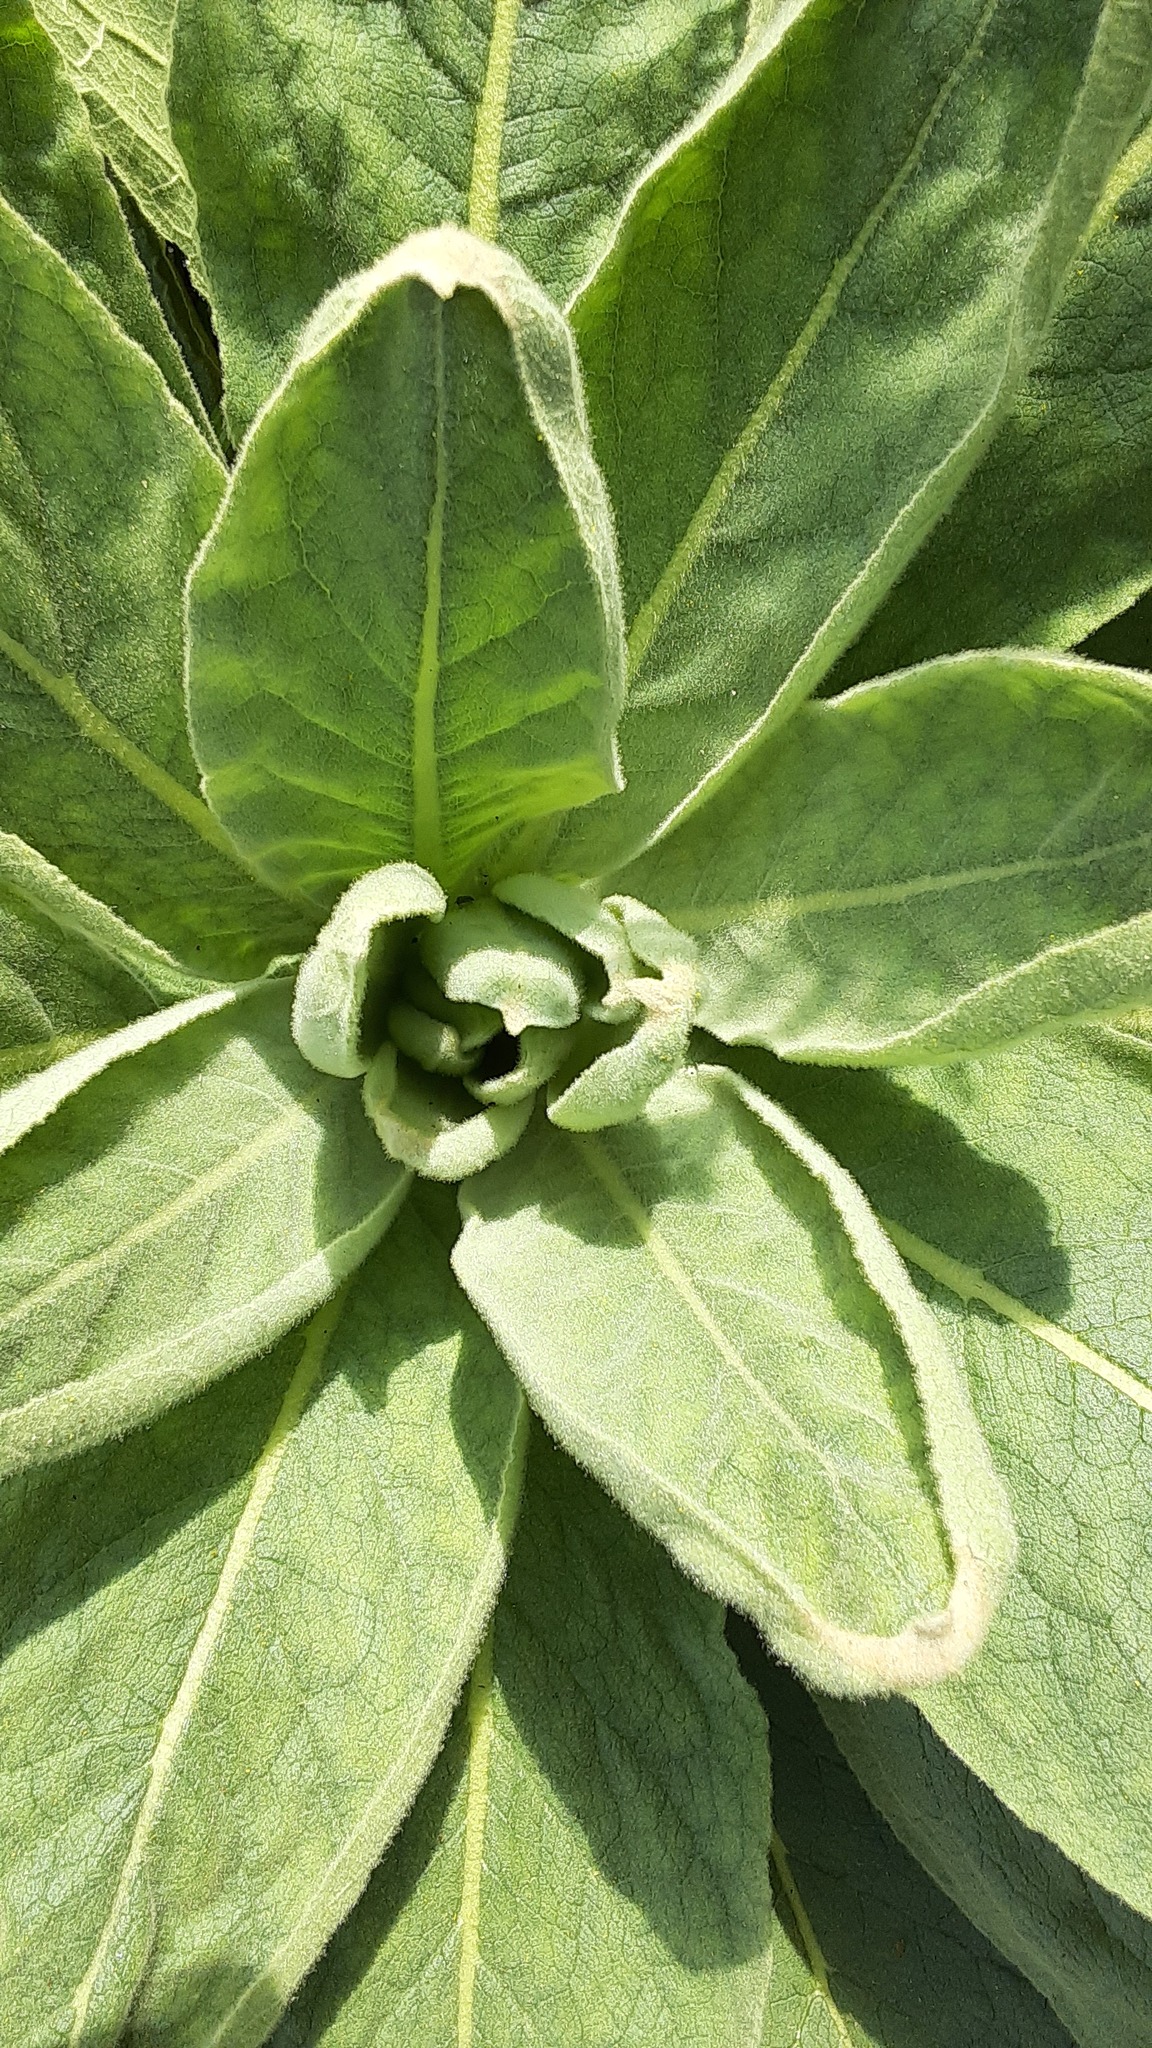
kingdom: Plantae
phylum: Tracheophyta
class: Magnoliopsida
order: Lamiales
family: Scrophulariaceae
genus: Verbascum
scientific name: Verbascum thapsus
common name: Common mullein
